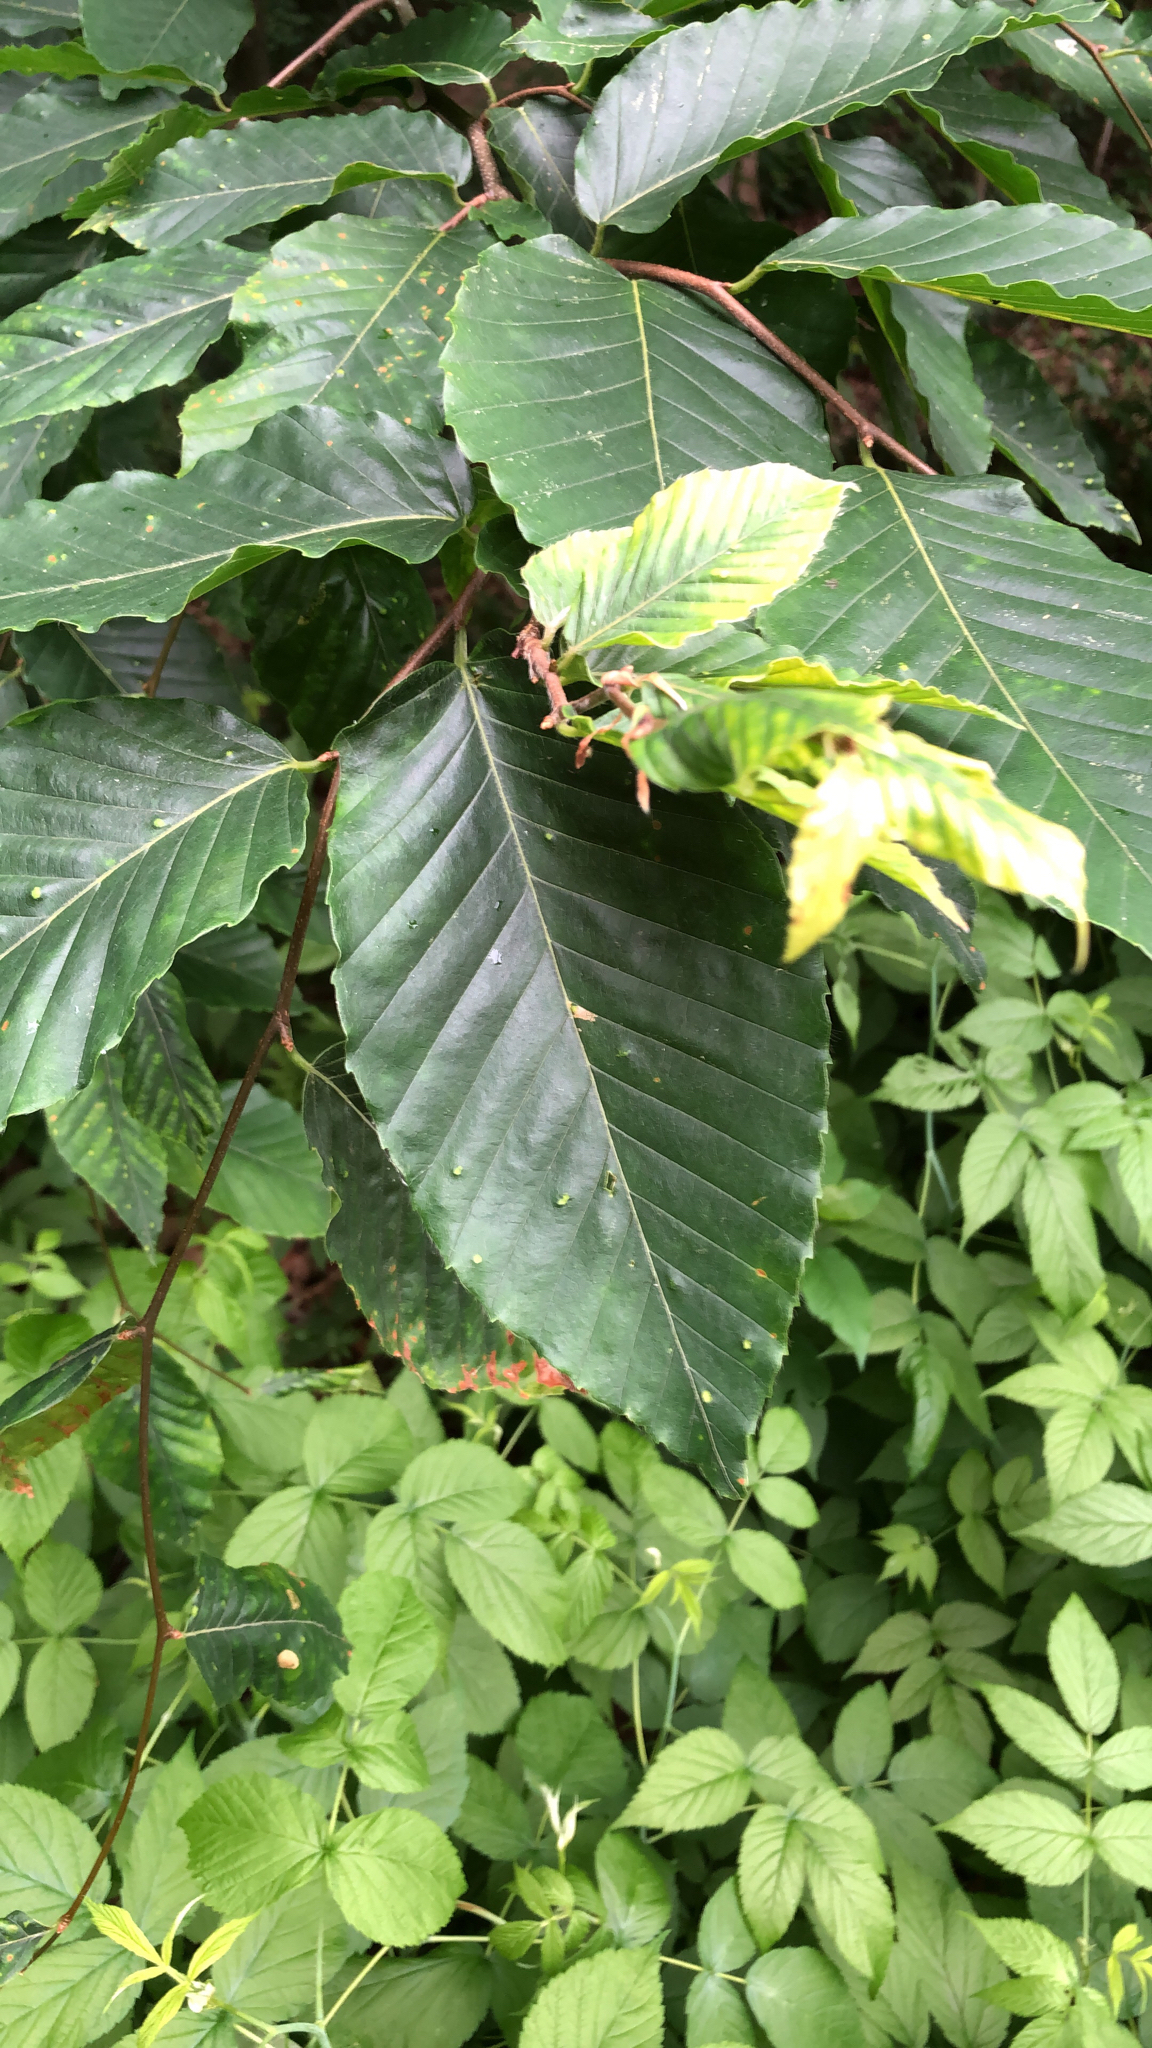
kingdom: Plantae
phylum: Tracheophyta
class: Magnoliopsida
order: Fagales
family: Fagaceae
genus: Fagus
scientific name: Fagus grandifolia
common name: American beech
